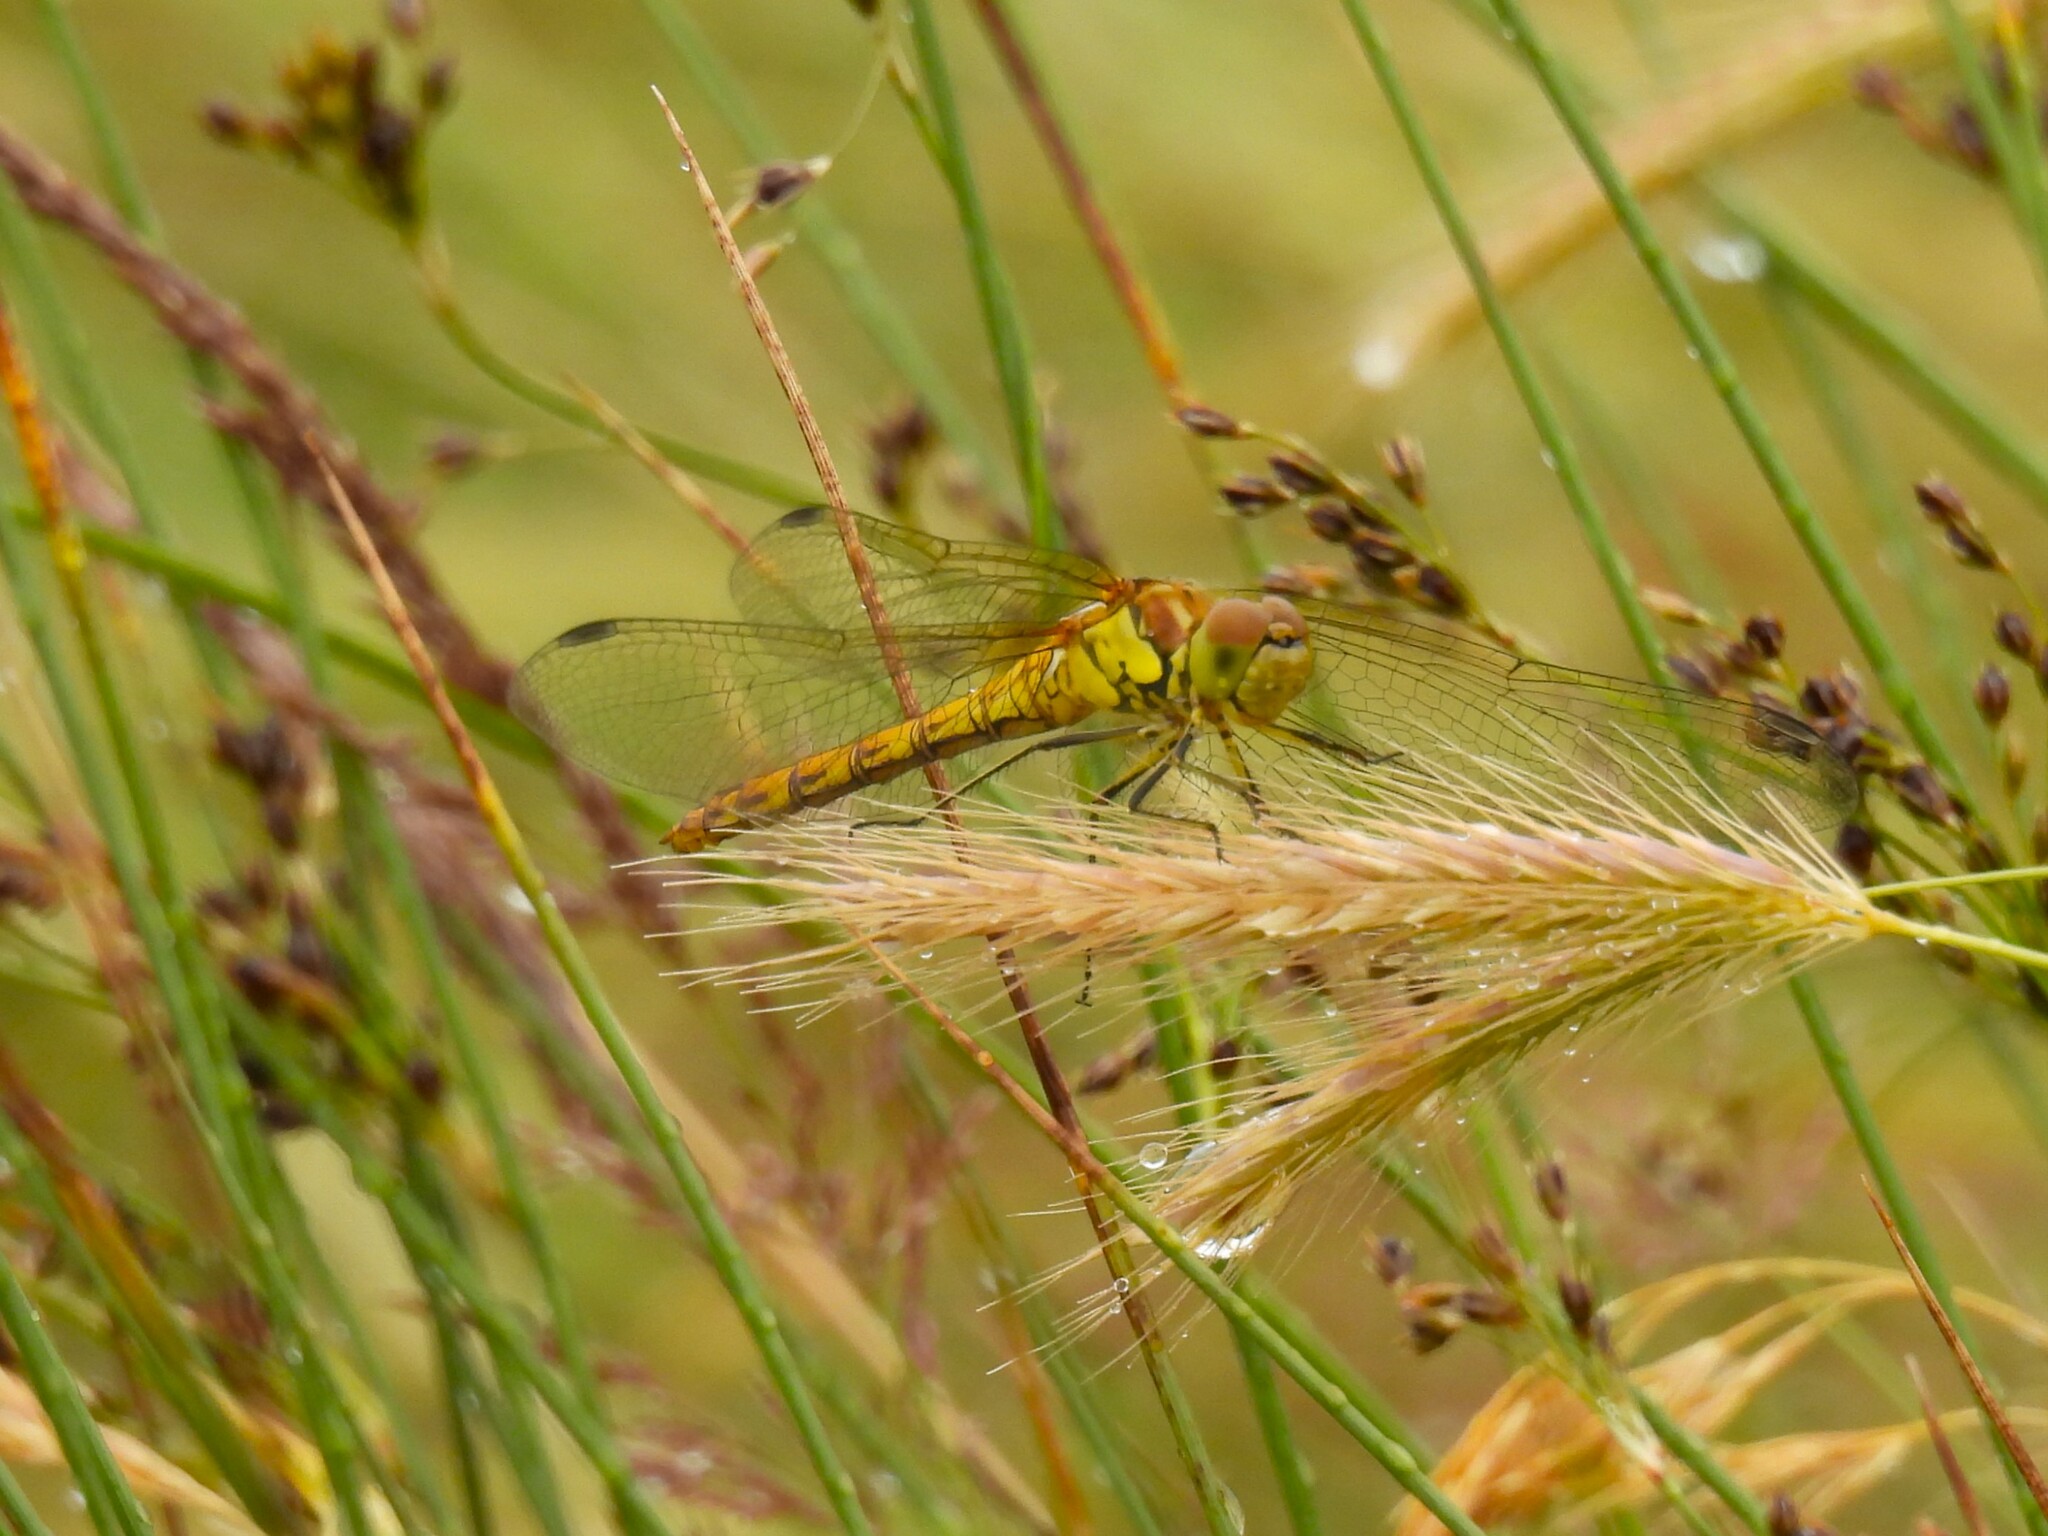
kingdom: Animalia
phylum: Arthropoda
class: Insecta
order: Odonata
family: Libellulidae
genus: Sympetrum
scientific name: Sympetrum striolatum
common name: Common darter
